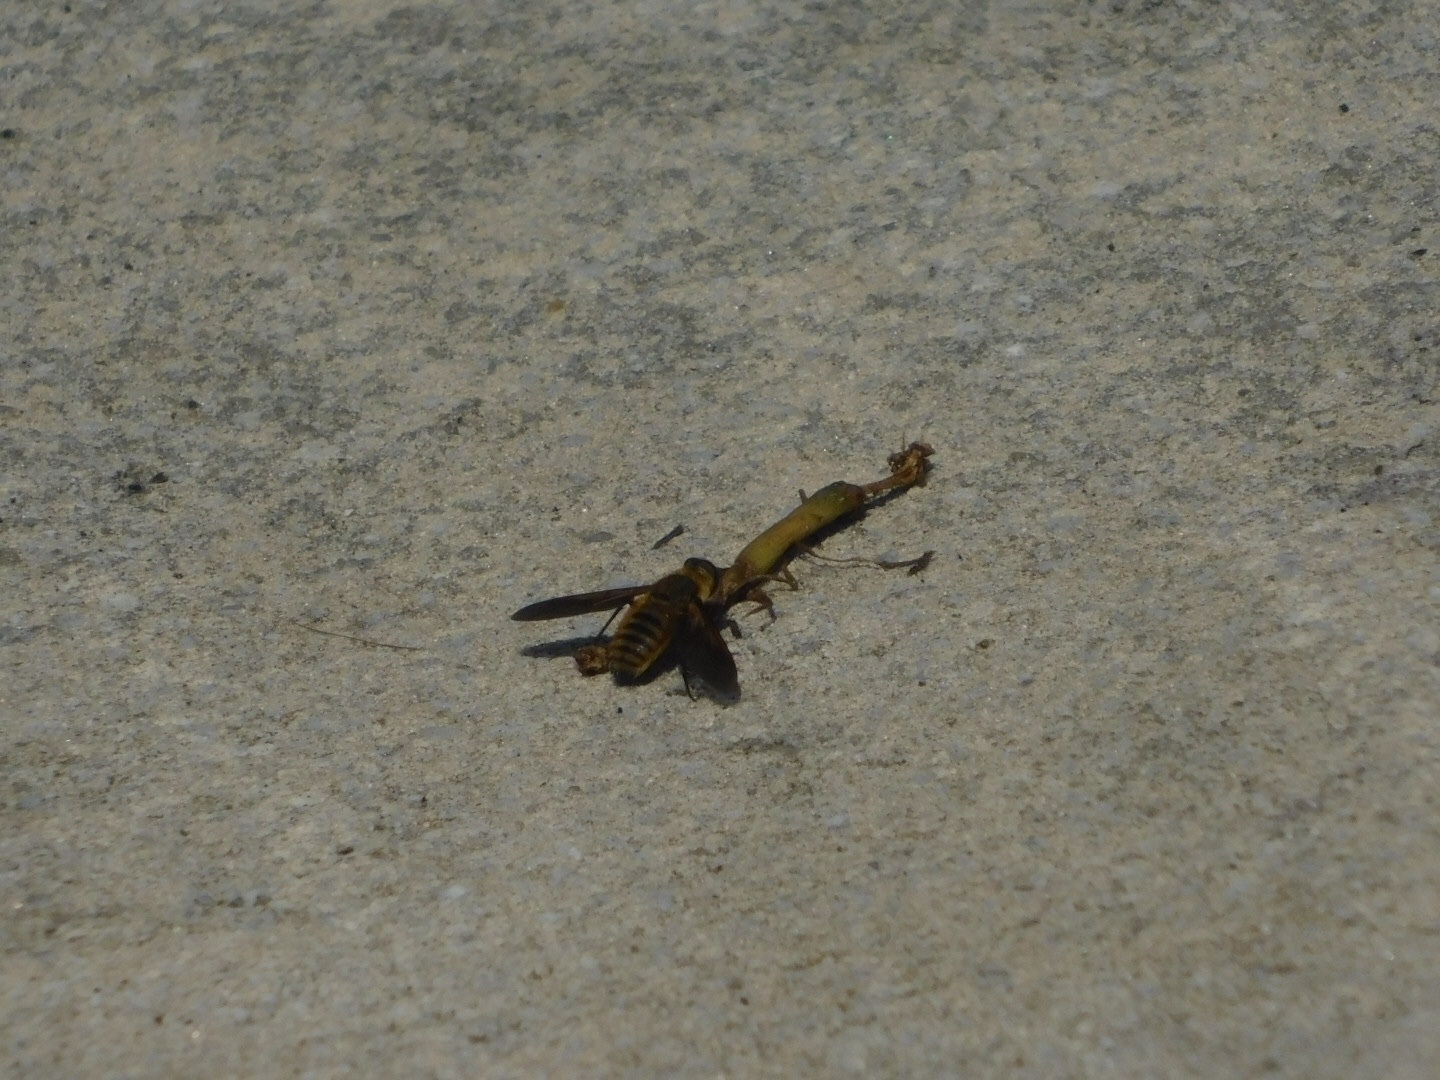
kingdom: Animalia
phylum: Arthropoda
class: Insecta
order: Diptera
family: Bombyliidae
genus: Poecilanthrax
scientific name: Poecilanthrax lucifer
